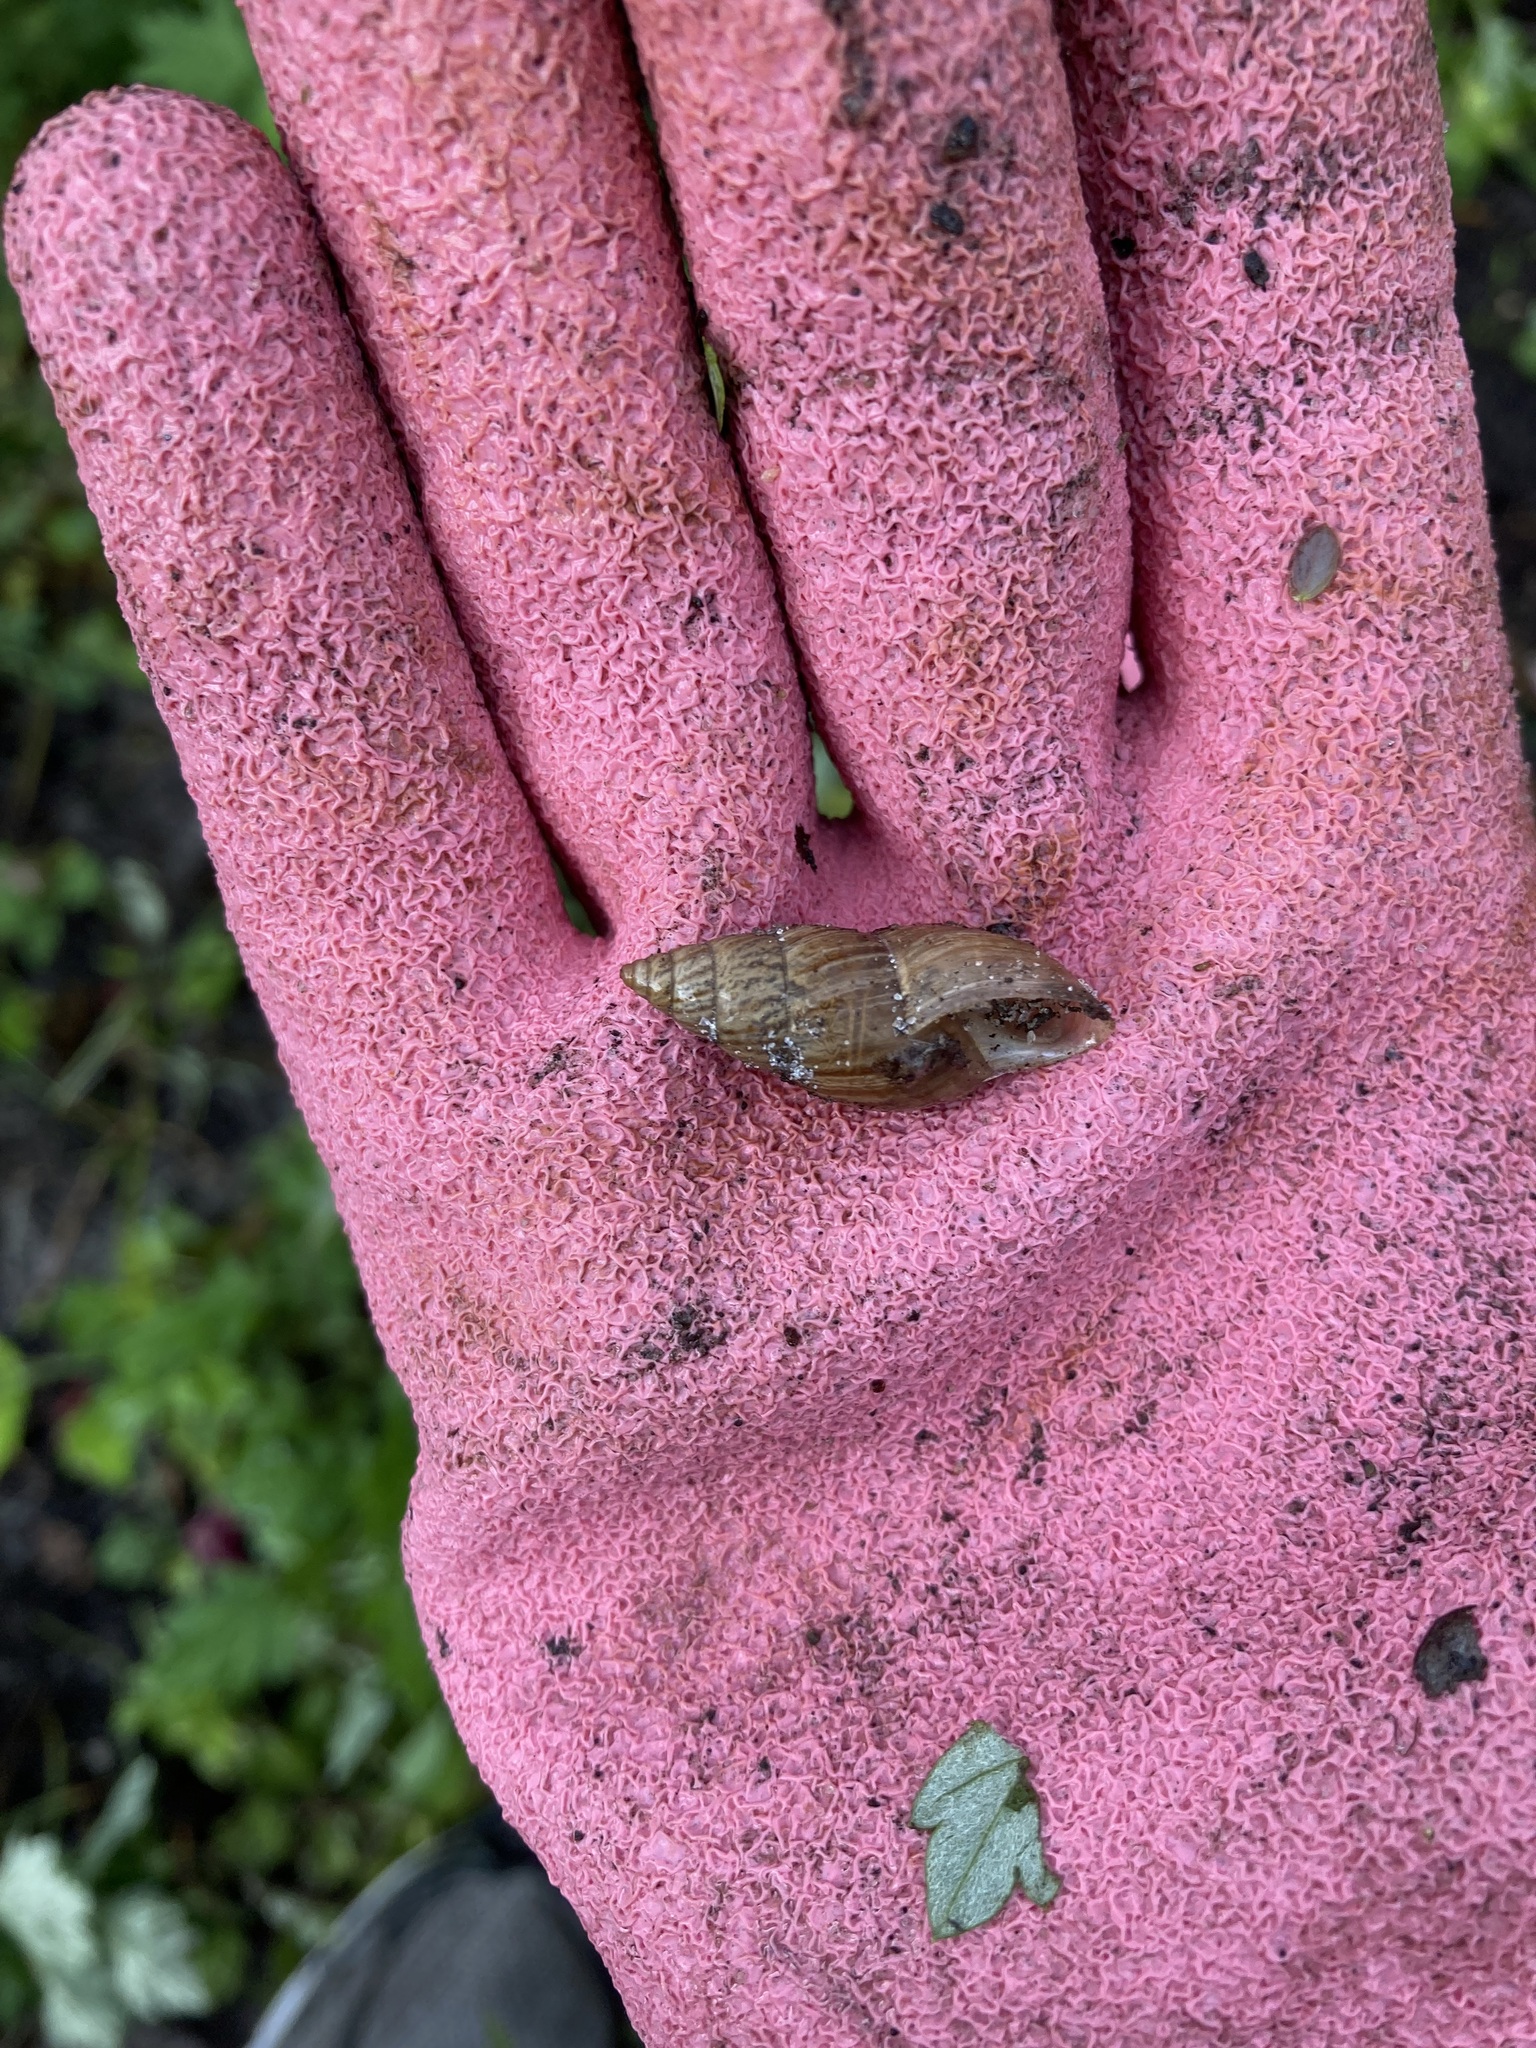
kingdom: Animalia
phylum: Mollusca
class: Gastropoda
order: Stylommatophora
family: Bulimulidae
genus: Bulimulus
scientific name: Bulimulus bonariensis
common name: Snail
